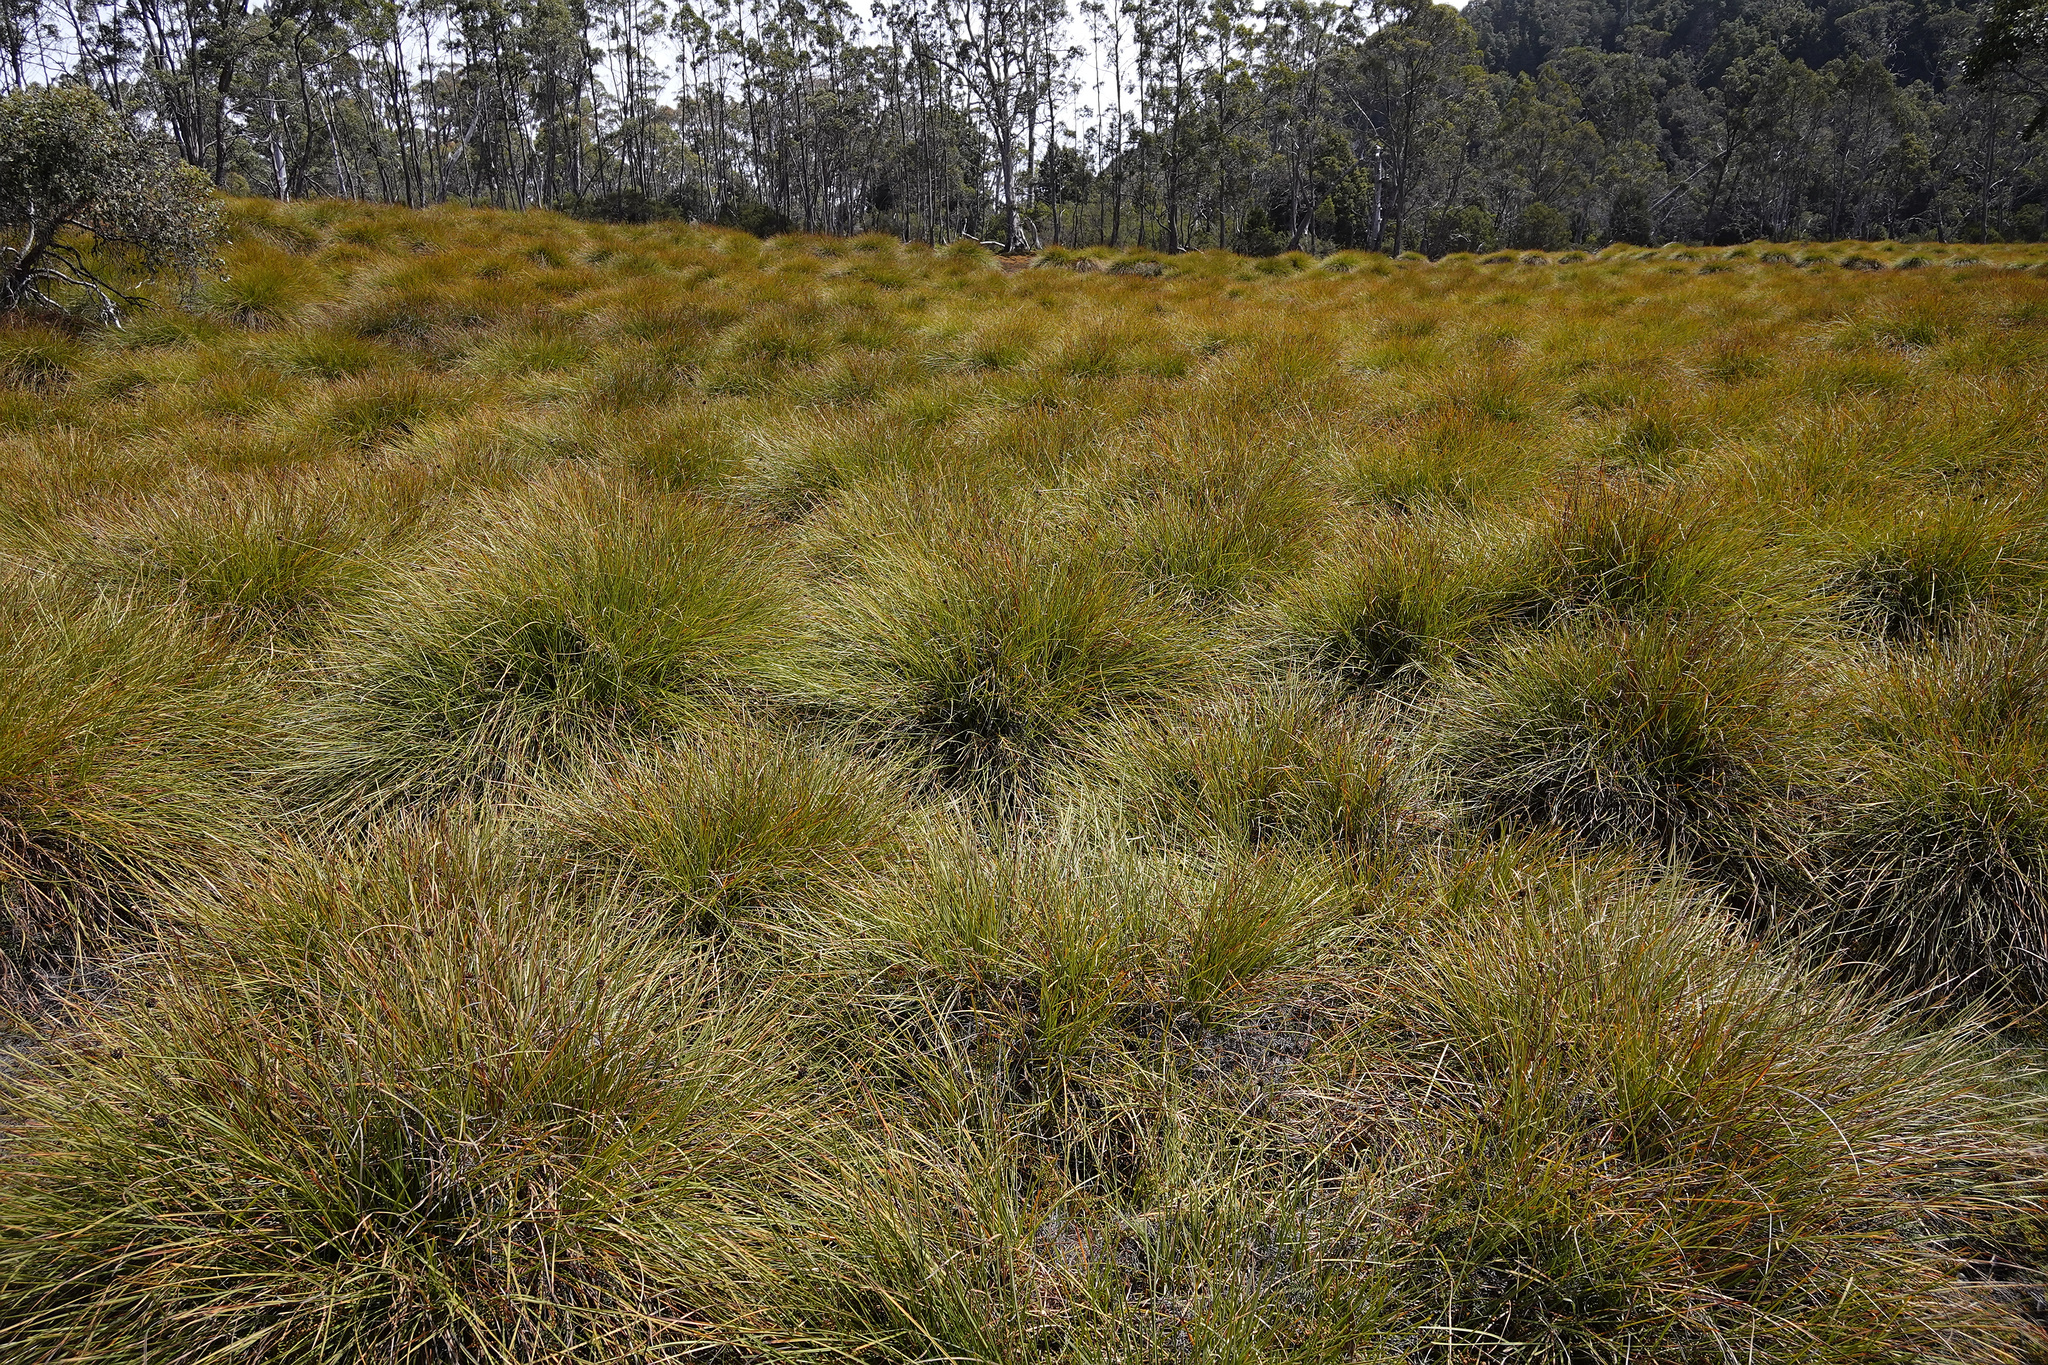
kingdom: Plantae
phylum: Tracheophyta
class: Liliopsida
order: Poales
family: Cyperaceae
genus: Gymnoschoenus
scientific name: Gymnoschoenus sphaerocephalus
